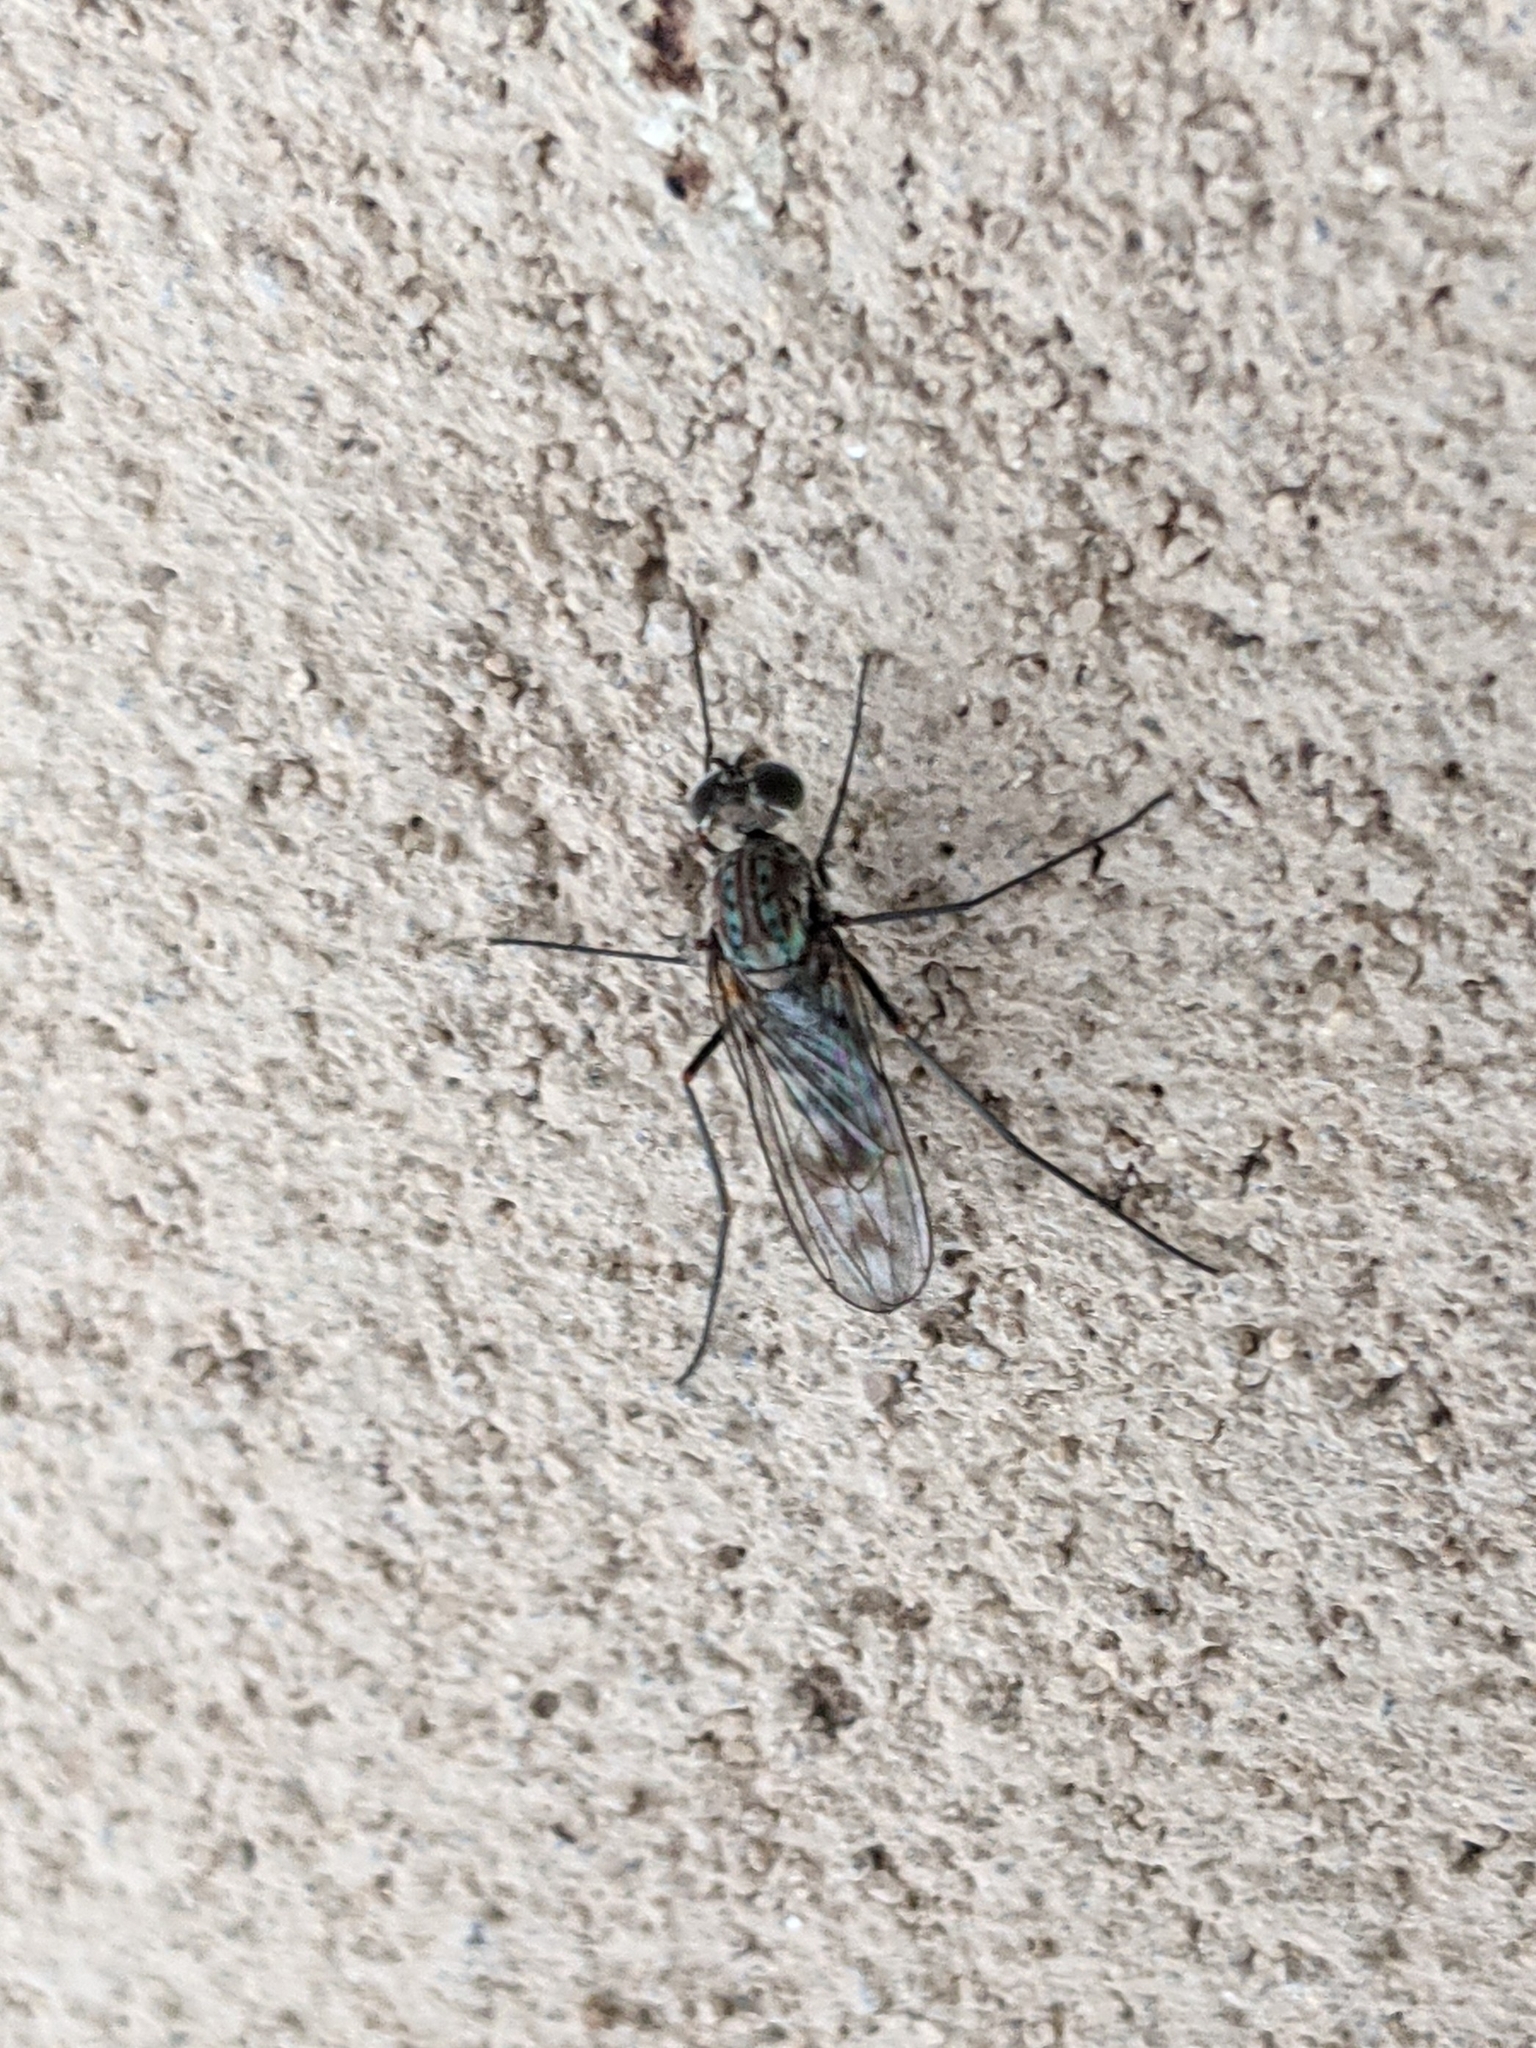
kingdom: Animalia
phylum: Arthropoda
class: Insecta
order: Diptera
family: Dolichopodidae
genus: Liancalus
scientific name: Liancalus genualis
